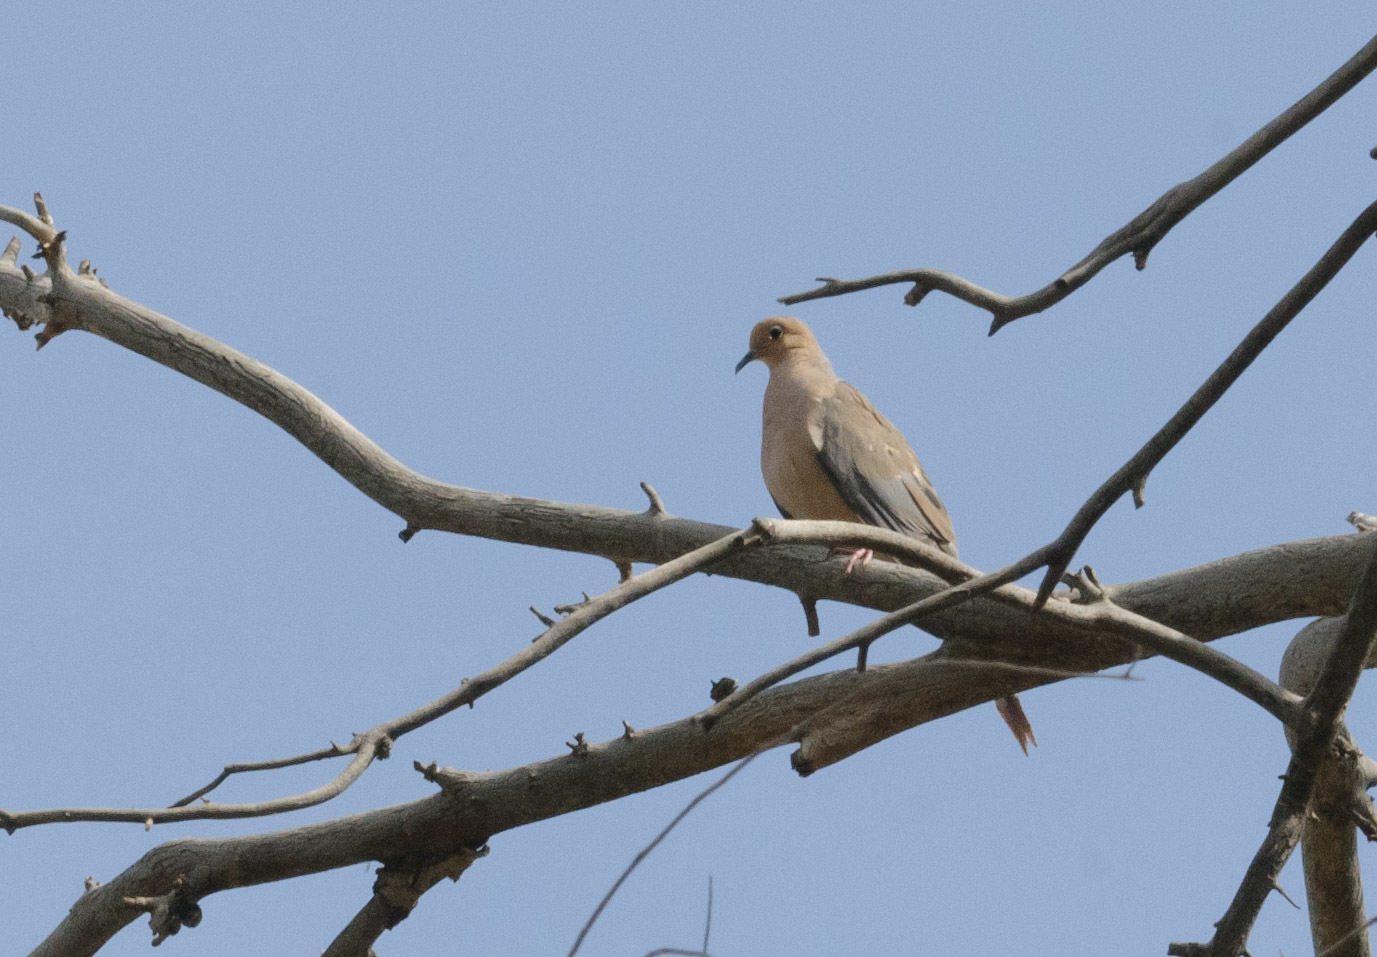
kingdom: Animalia
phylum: Chordata
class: Aves
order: Columbiformes
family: Columbidae
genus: Zenaida
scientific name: Zenaida macroura
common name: Mourning dove
